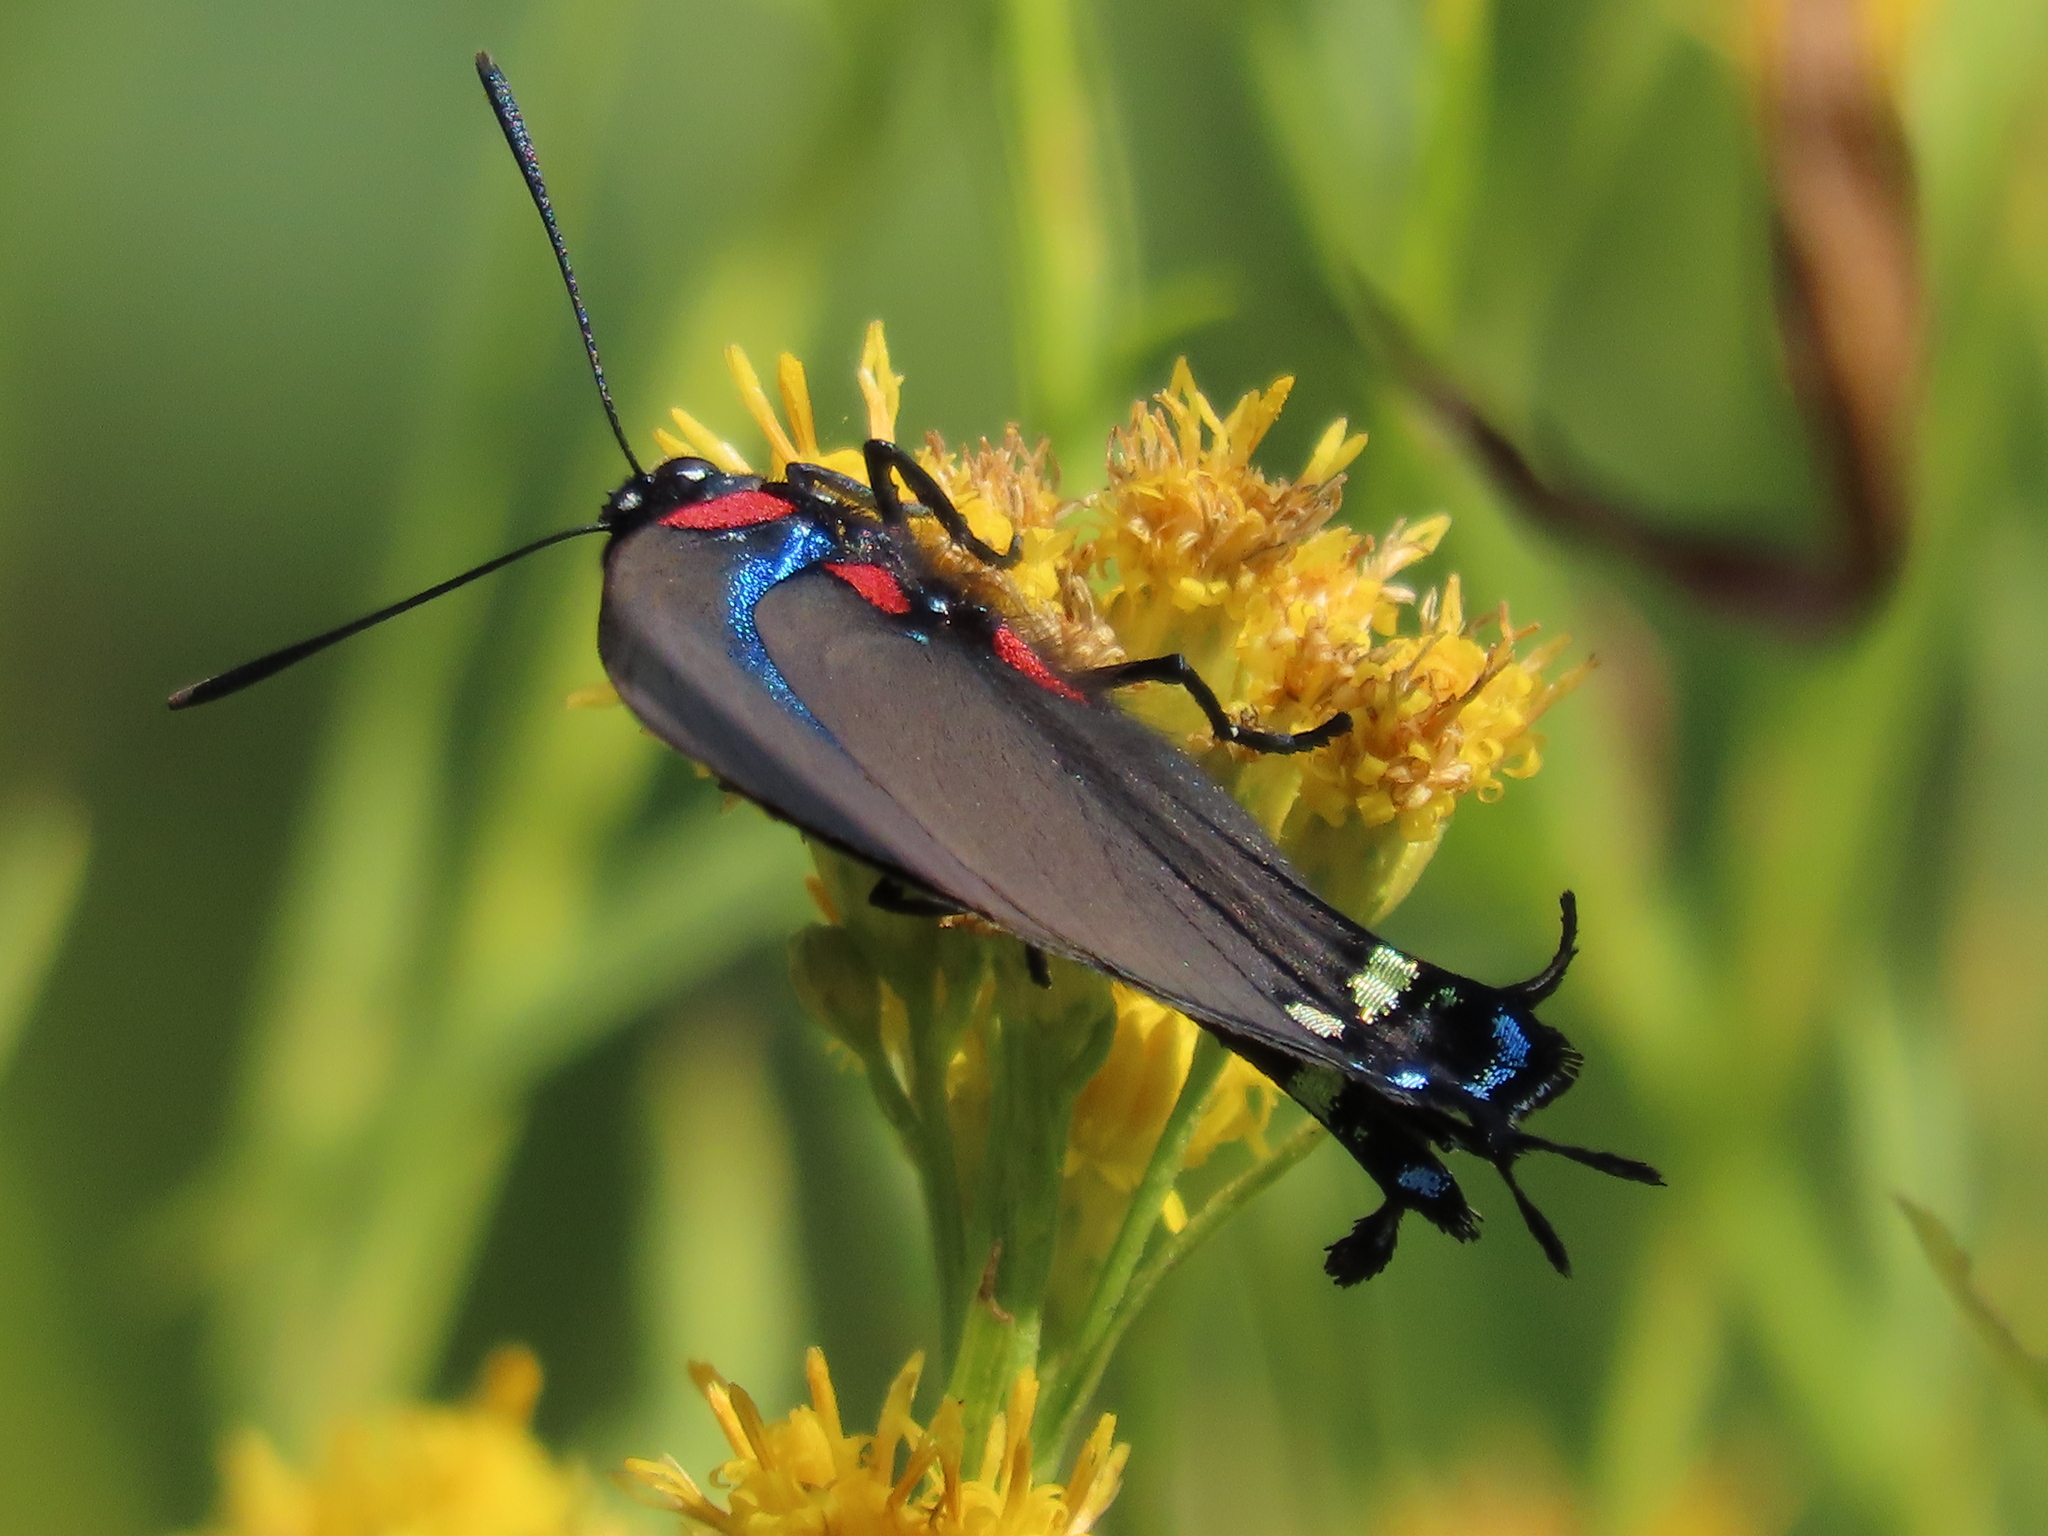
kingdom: Animalia
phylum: Arthropoda
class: Insecta
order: Lepidoptera
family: Lycaenidae
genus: Atlides
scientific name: Atlides halesus
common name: Great purple hairstreak
